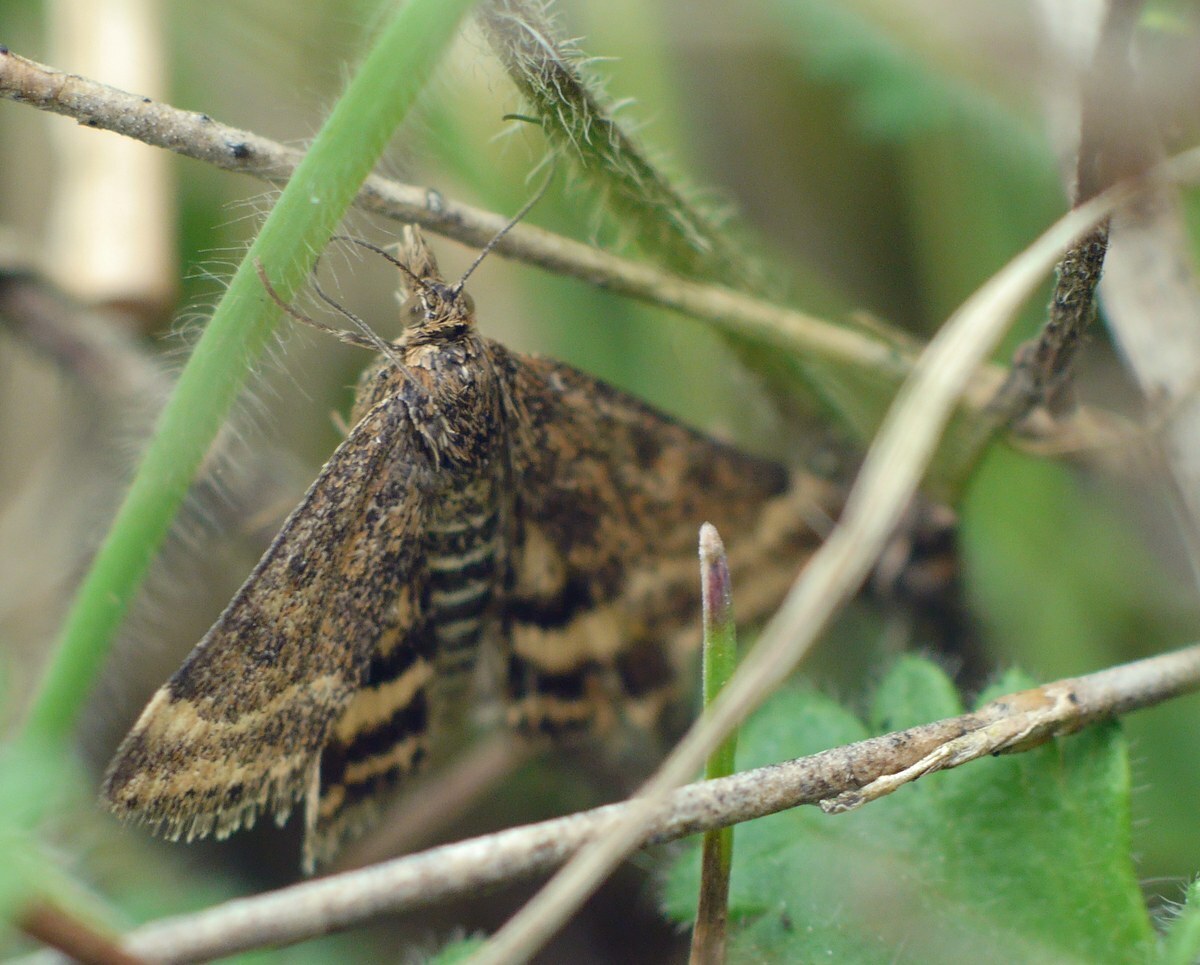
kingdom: Animalia
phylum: Arthropoda
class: Insecta
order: Lepidoptera
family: Crambidae
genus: Pyrausta
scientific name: Pyrausta despicata
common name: Straw-barred pearl
